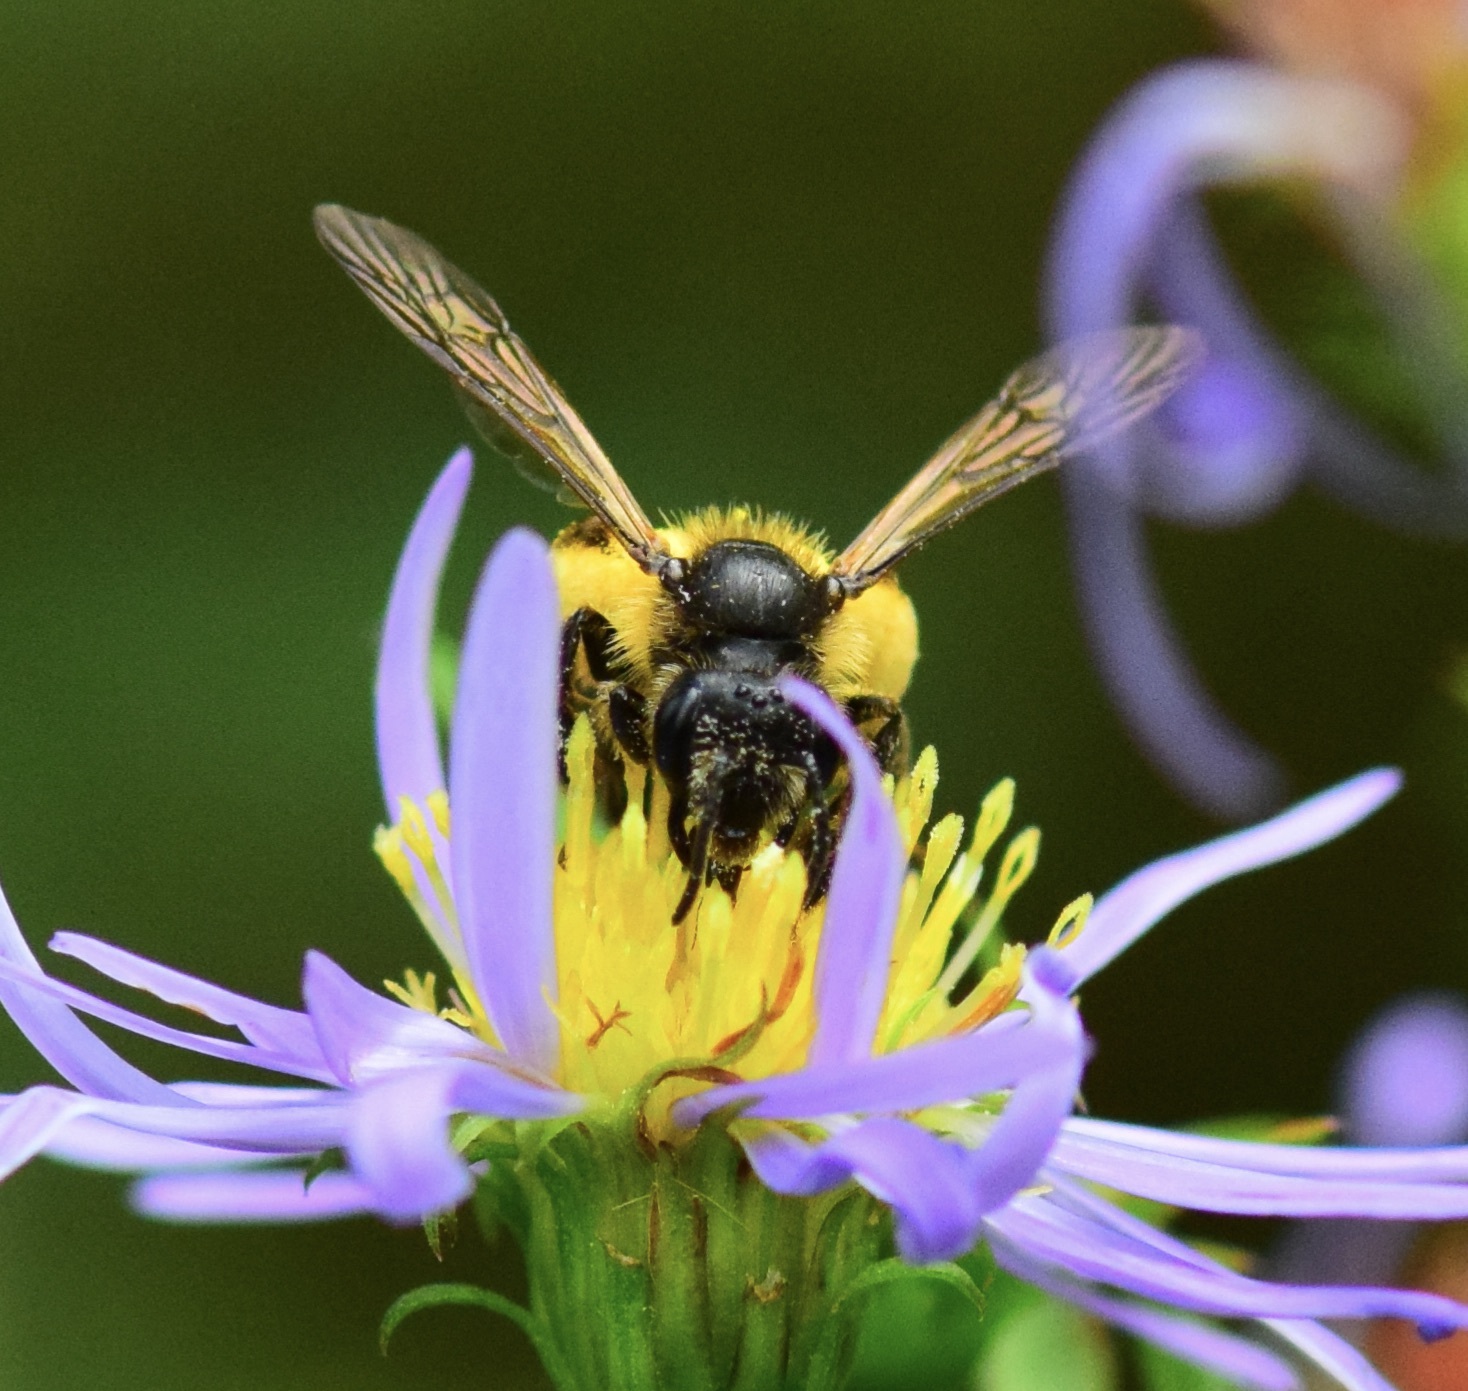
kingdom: Animalia
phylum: Arthropoda
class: Insecta
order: Hymenoptera
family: Andrenidae
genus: Andrena
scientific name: Andrena robervalensis
